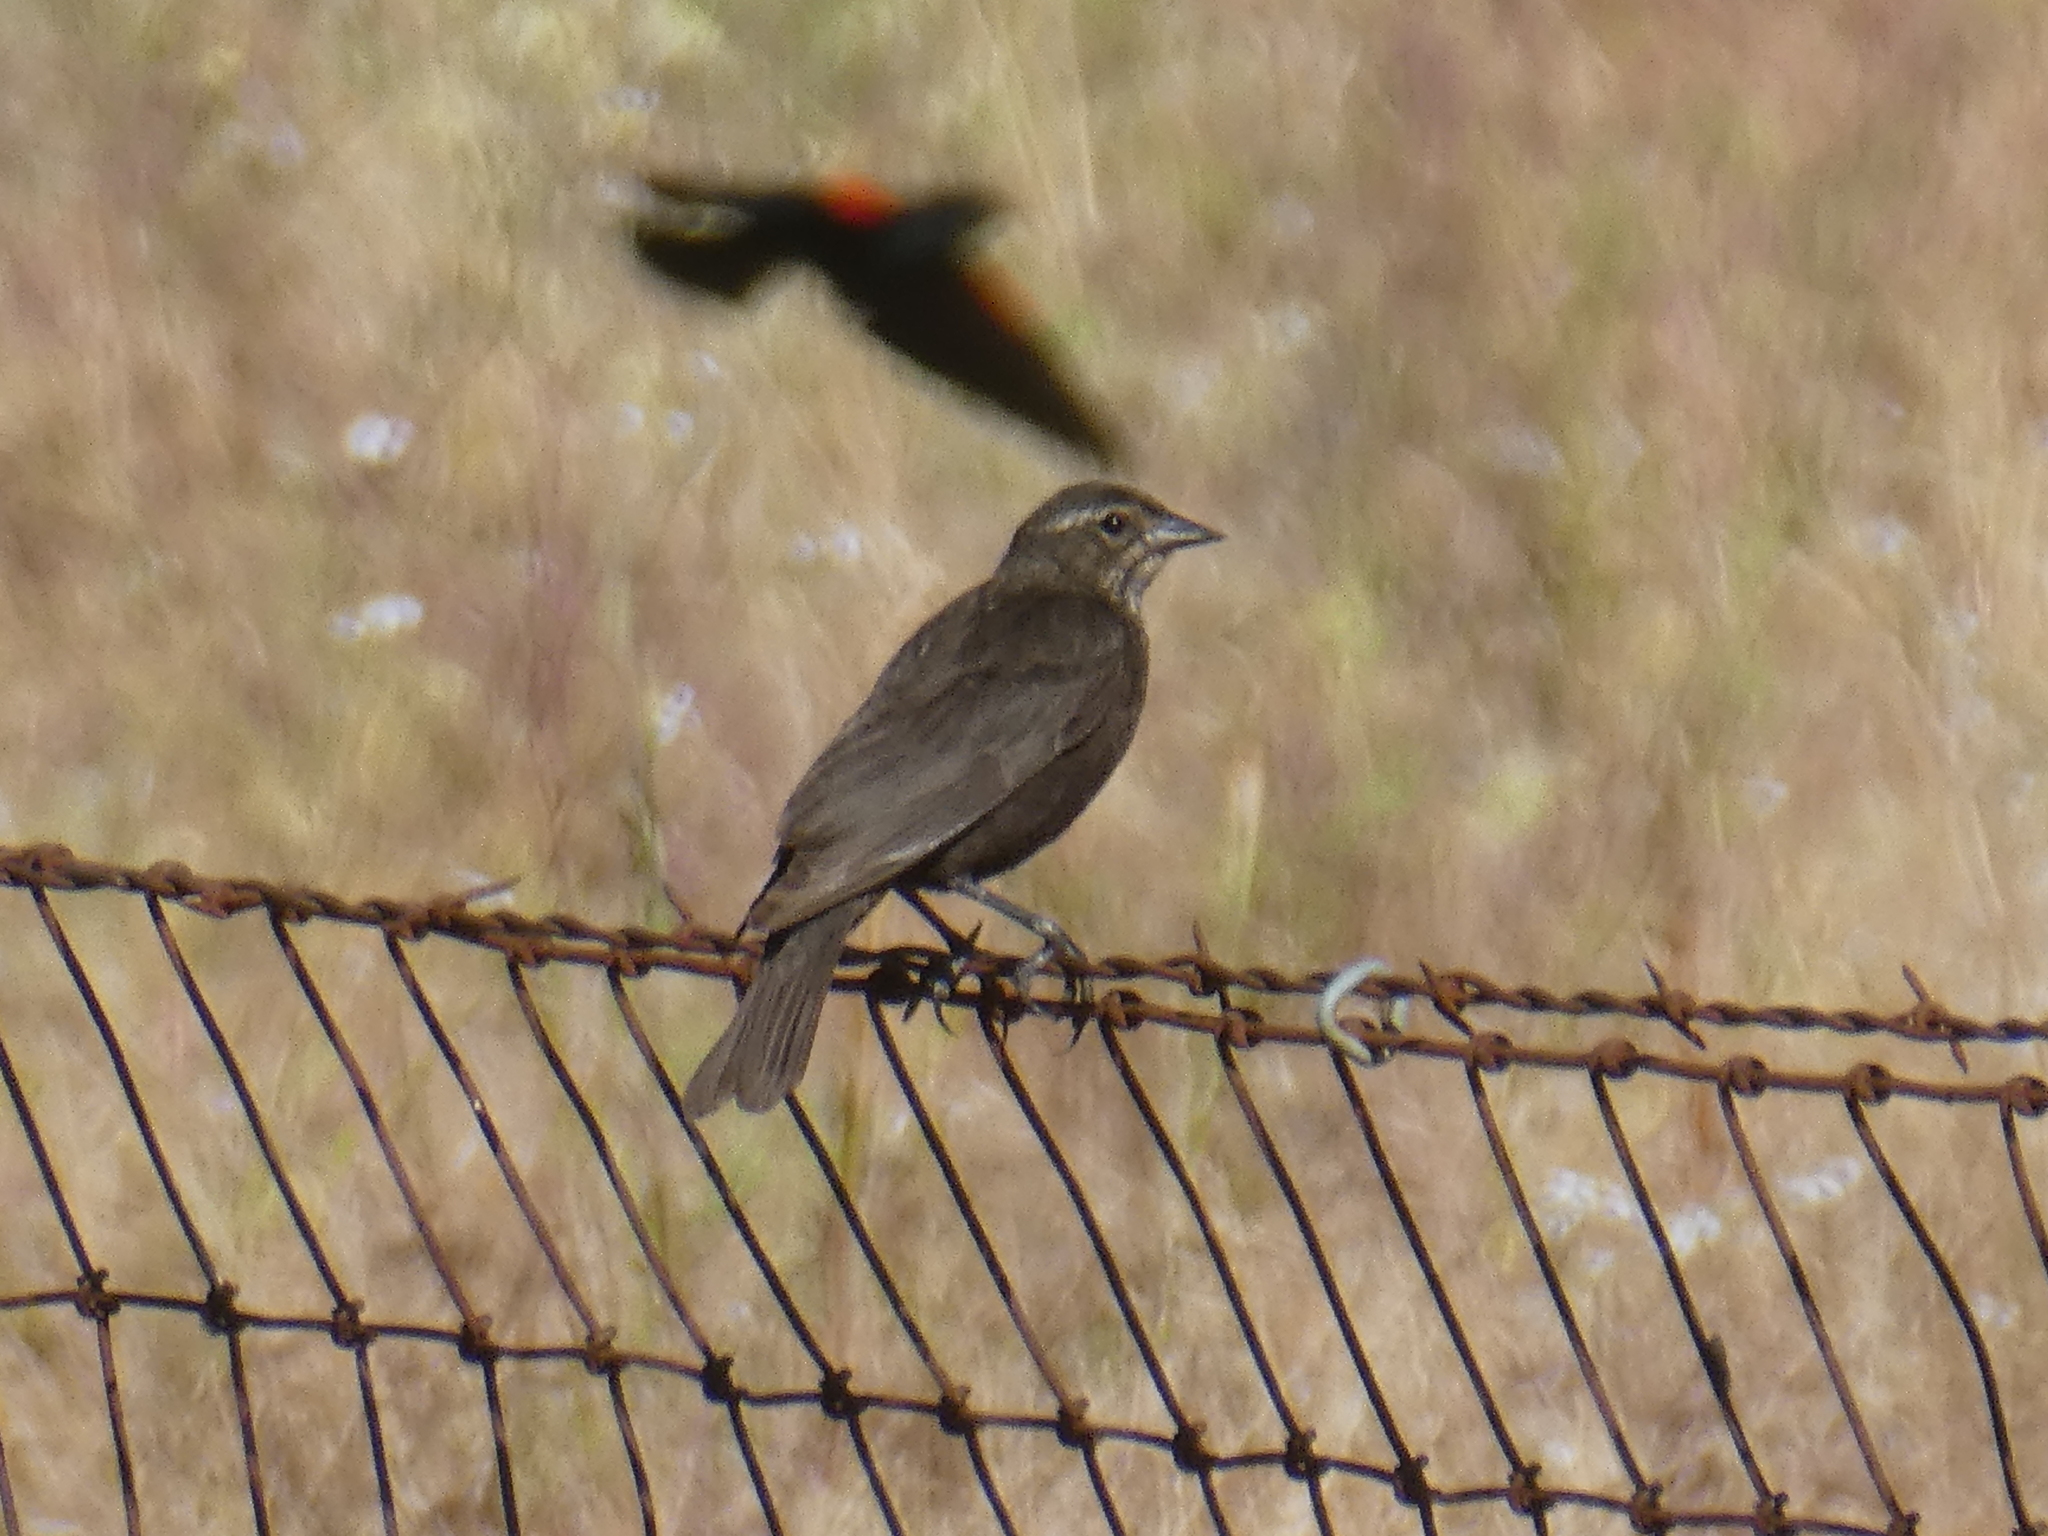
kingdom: Animalia
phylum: Chordata
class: Aves
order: Passeriformes
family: Icteridae
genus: Agelaius
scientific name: Agelaius phoeniceus
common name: Red-winged blackbird
